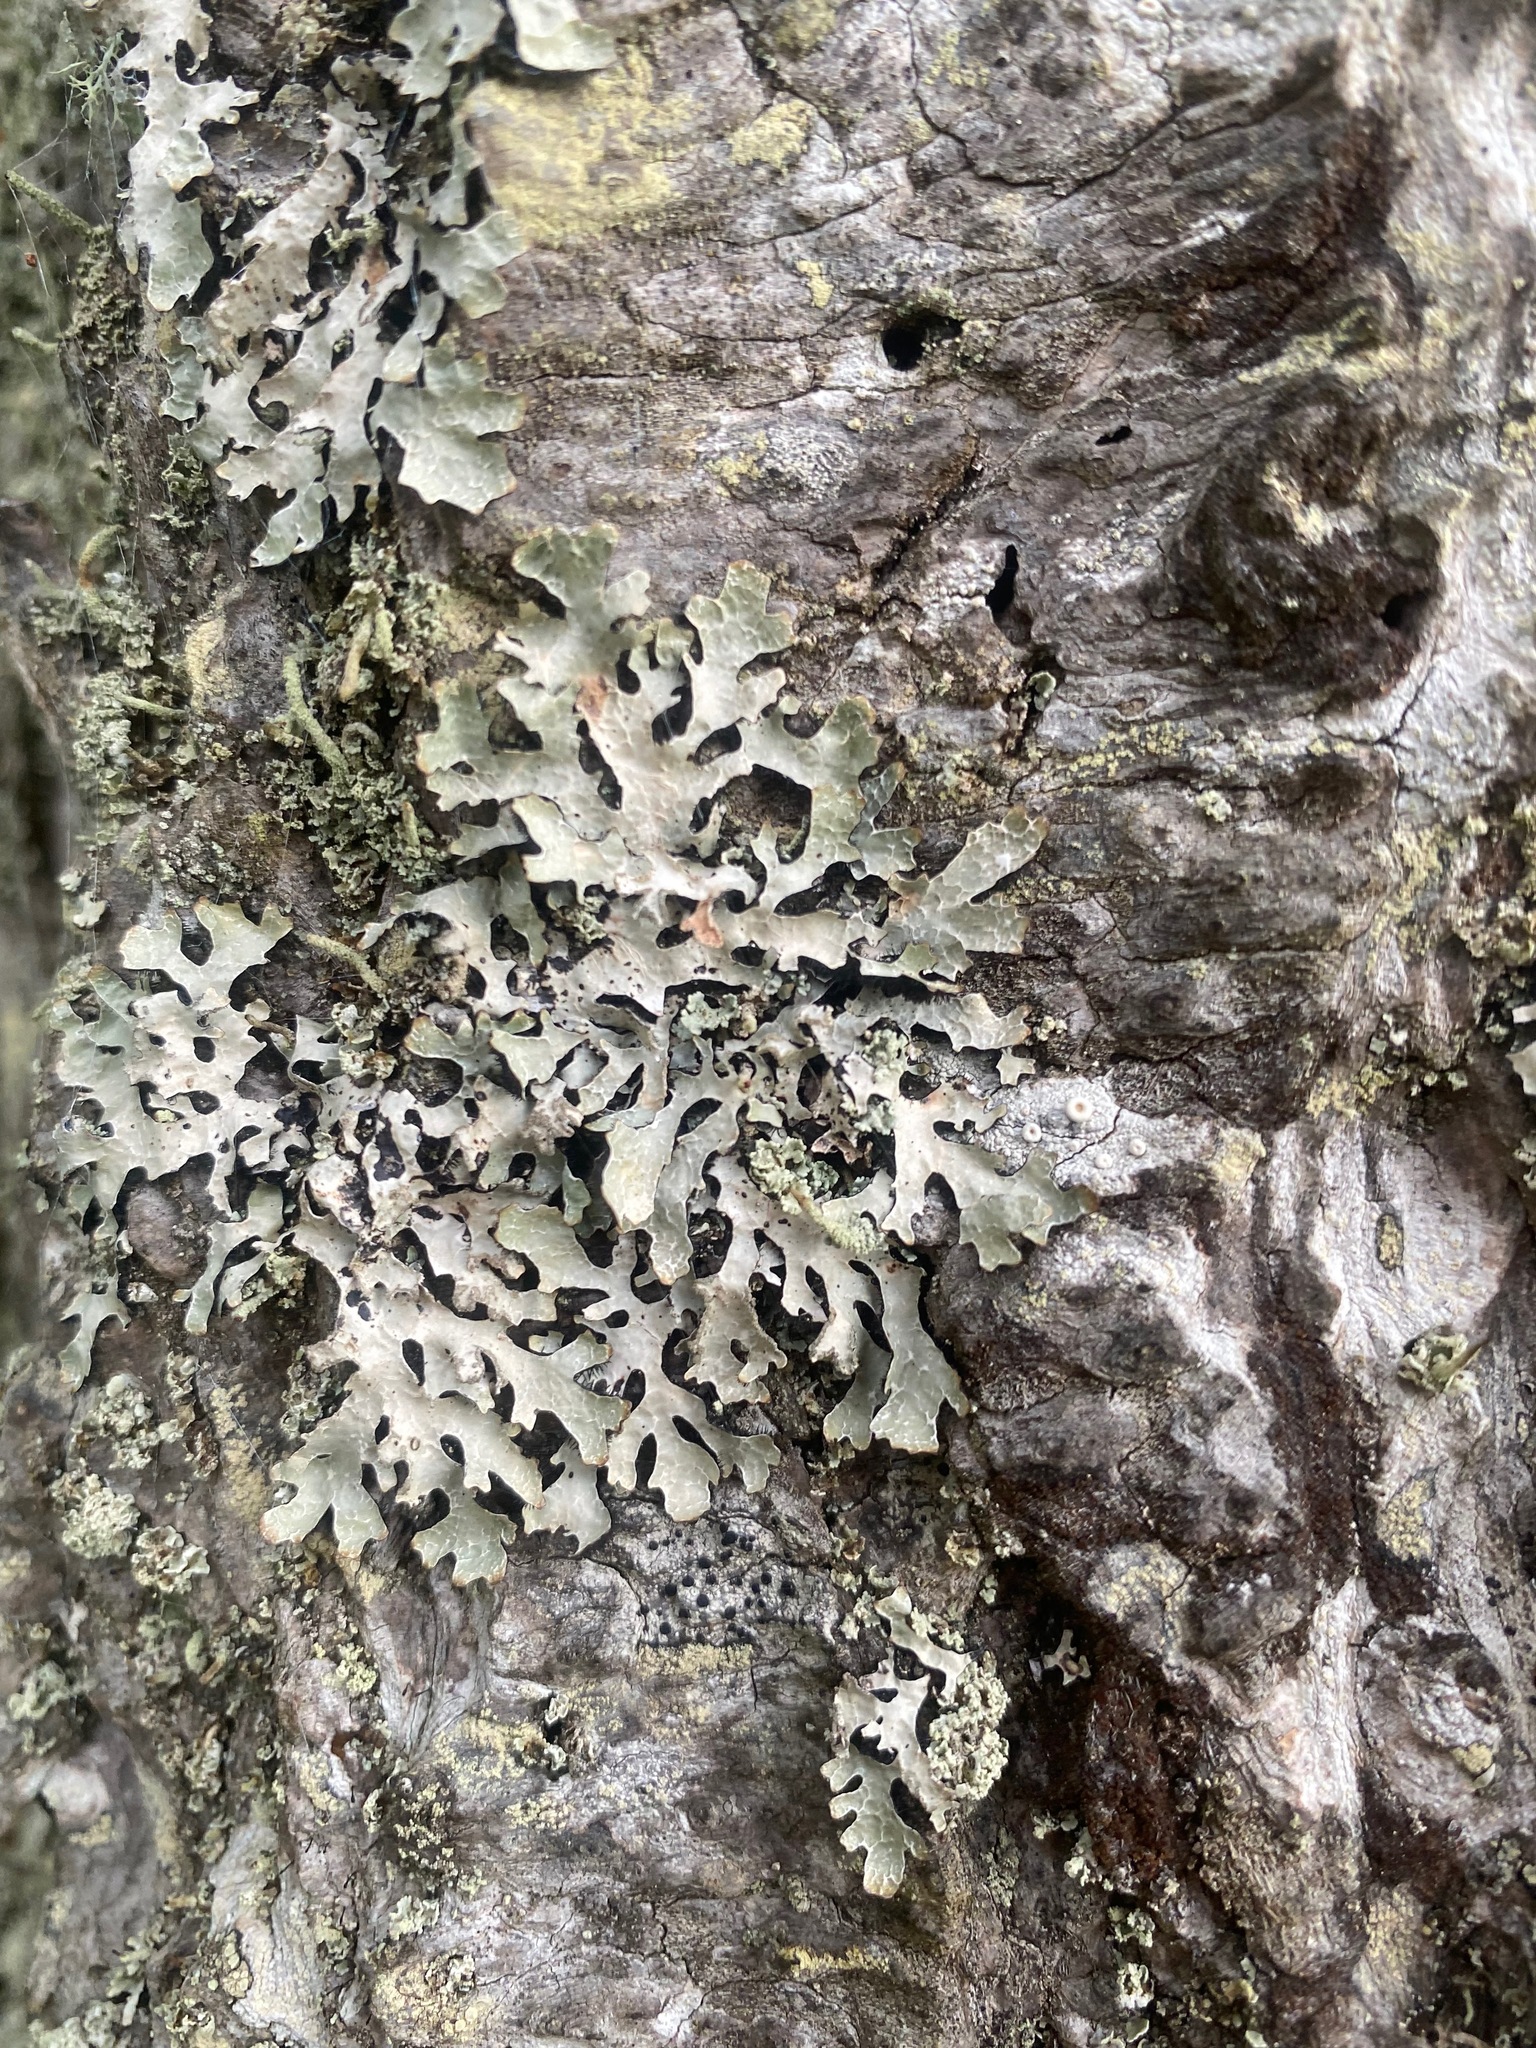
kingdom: Fungi
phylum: Ascomycota
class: Lecanoromycetes
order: Lecanorales
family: Parmeliaceae
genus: Parmelia
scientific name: Parmelia sulcata
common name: Netted shield lichen
